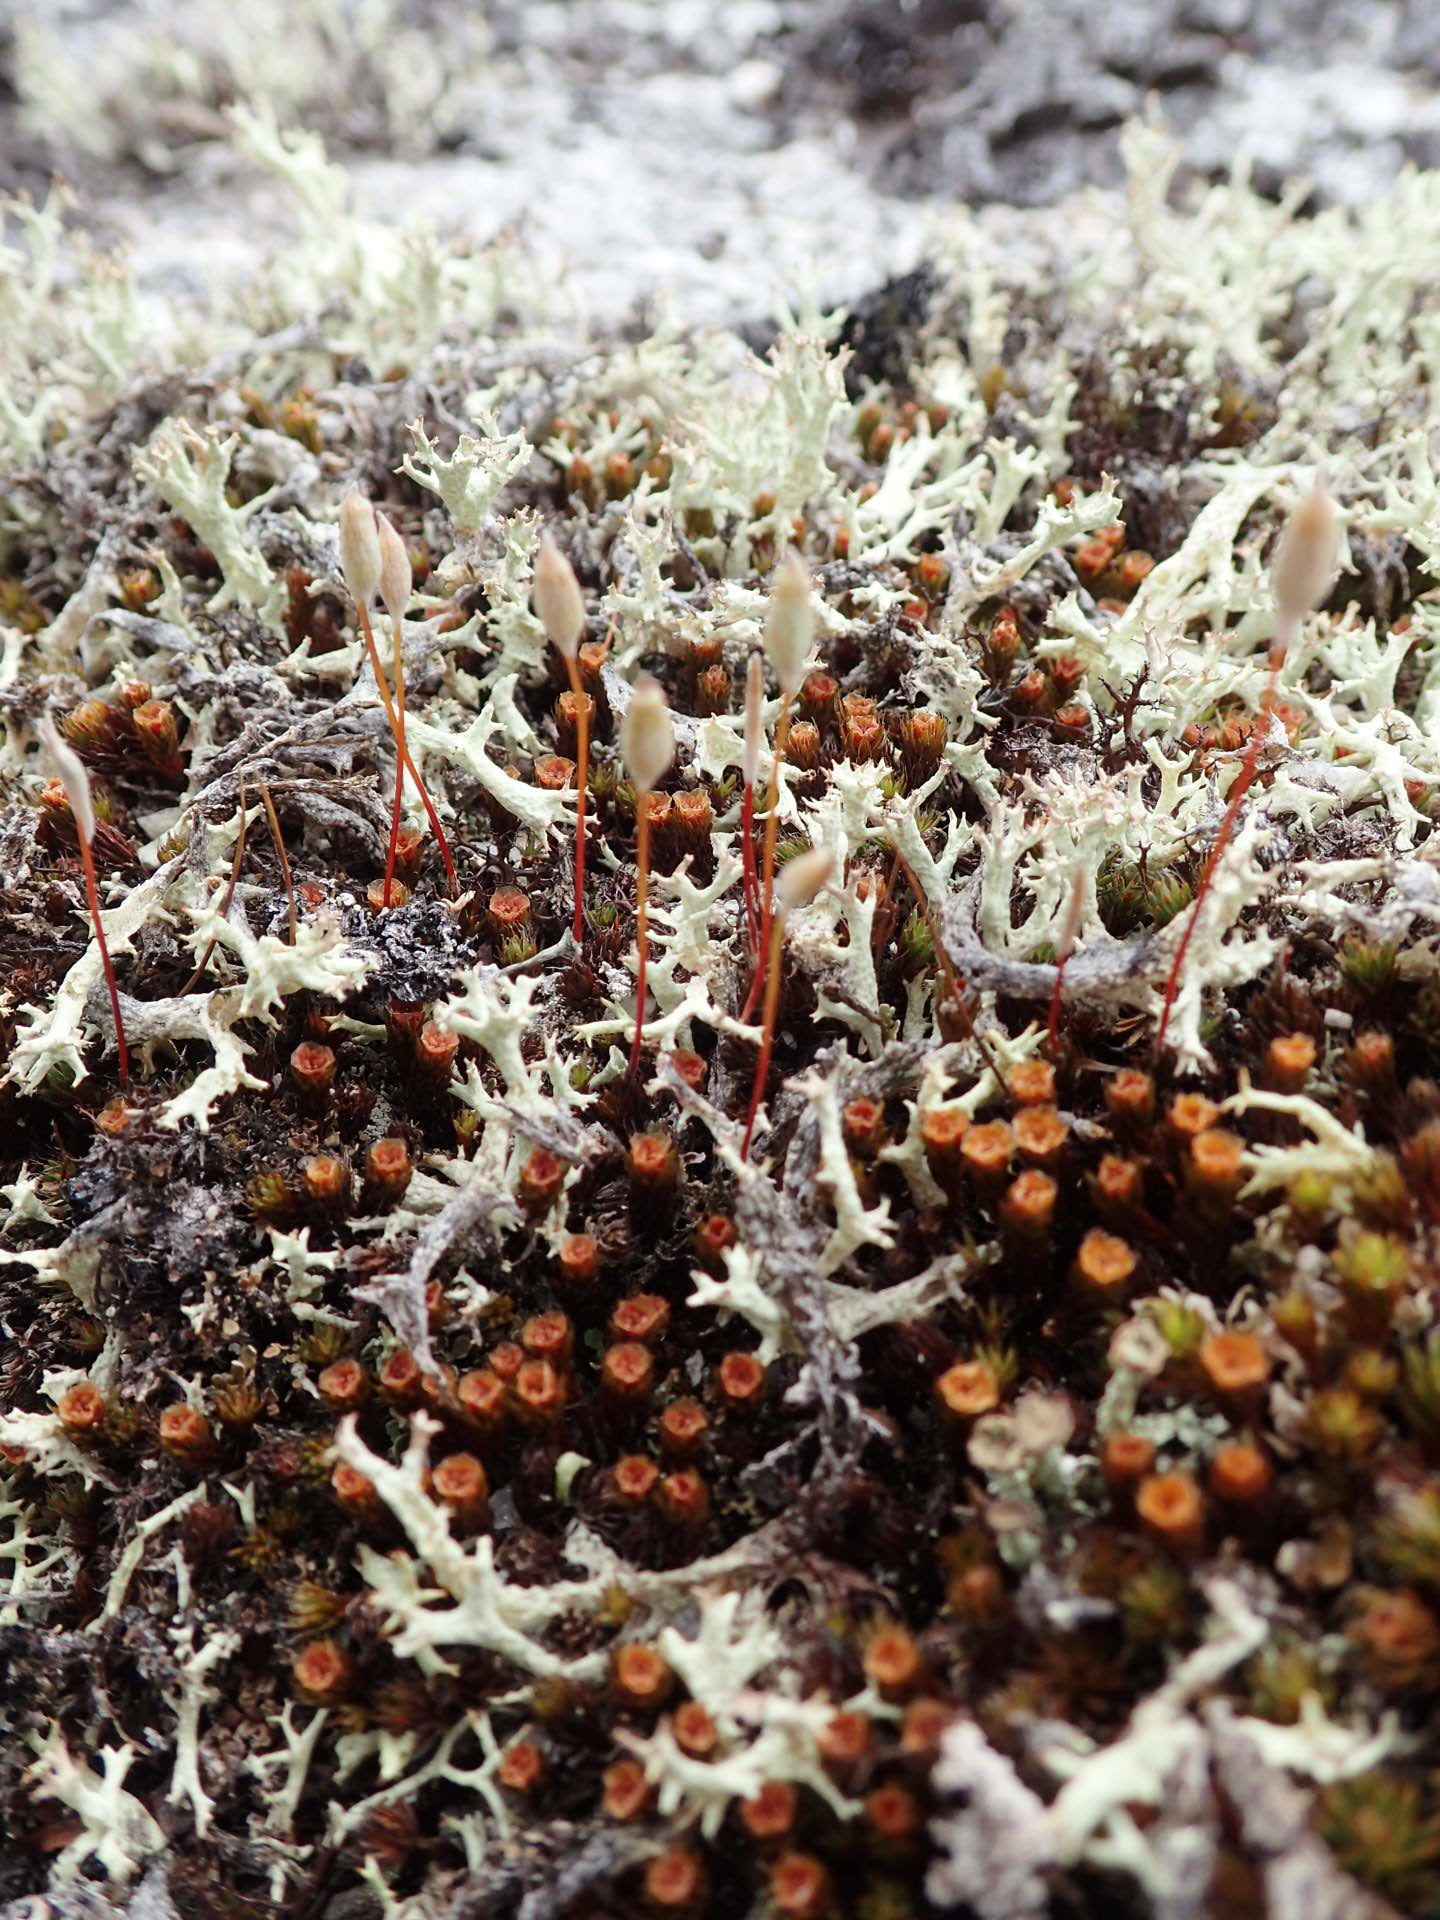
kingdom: Plantae
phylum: Bryophyta
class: Polytrichopsida
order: Polytrichales
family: Polytrichaceae
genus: Polytrichum
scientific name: Polytrichum piliferum
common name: Bristly haircap
